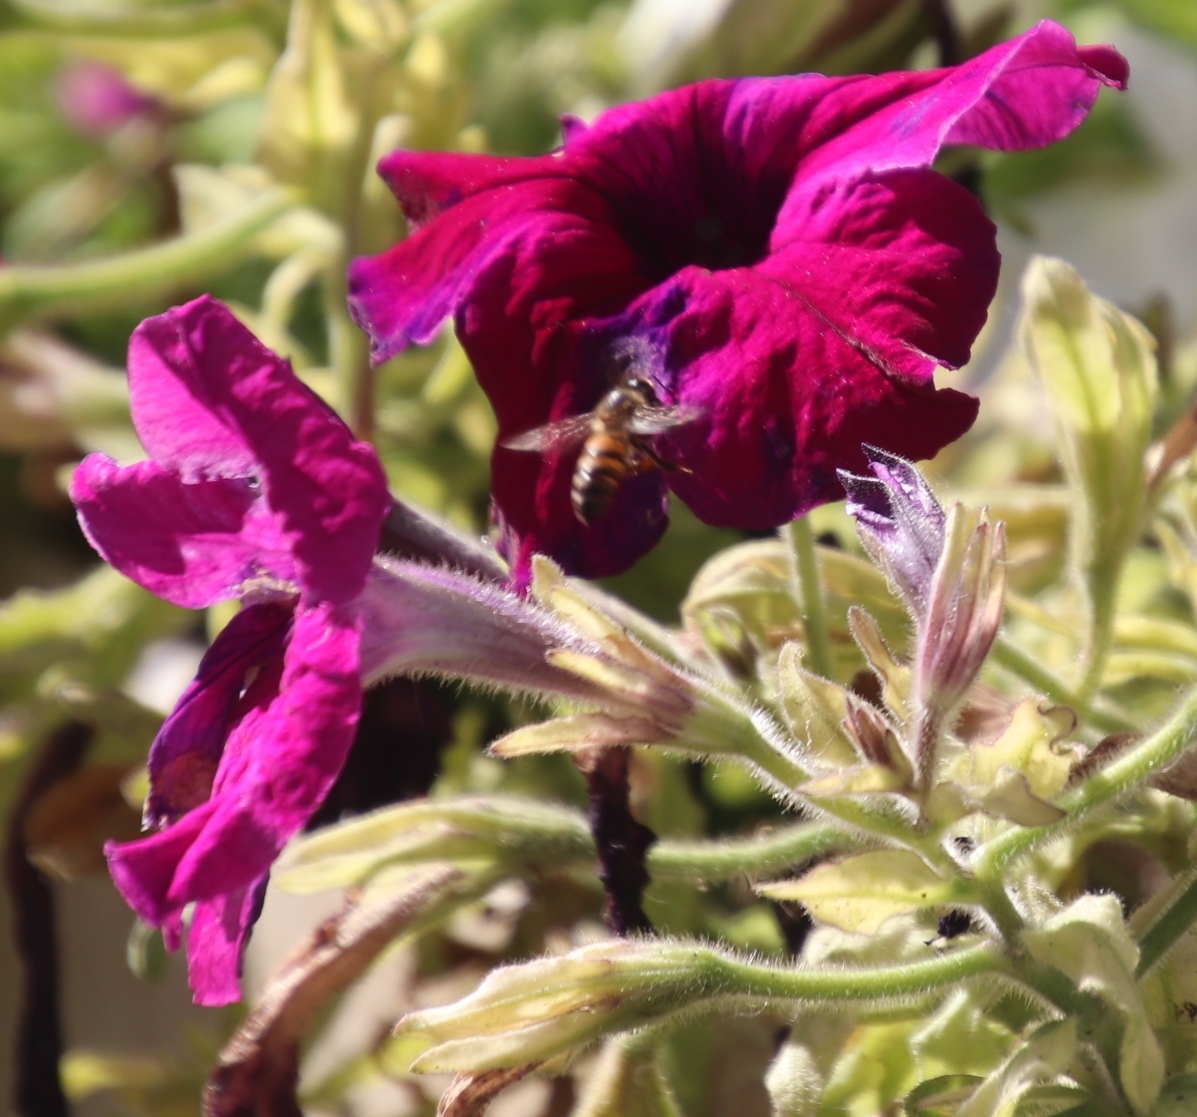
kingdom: Animalia
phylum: Arthropoda
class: Insecta
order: Hymenoptera
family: Apidae
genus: Apis
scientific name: Apis mellifera
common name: Honey bee
